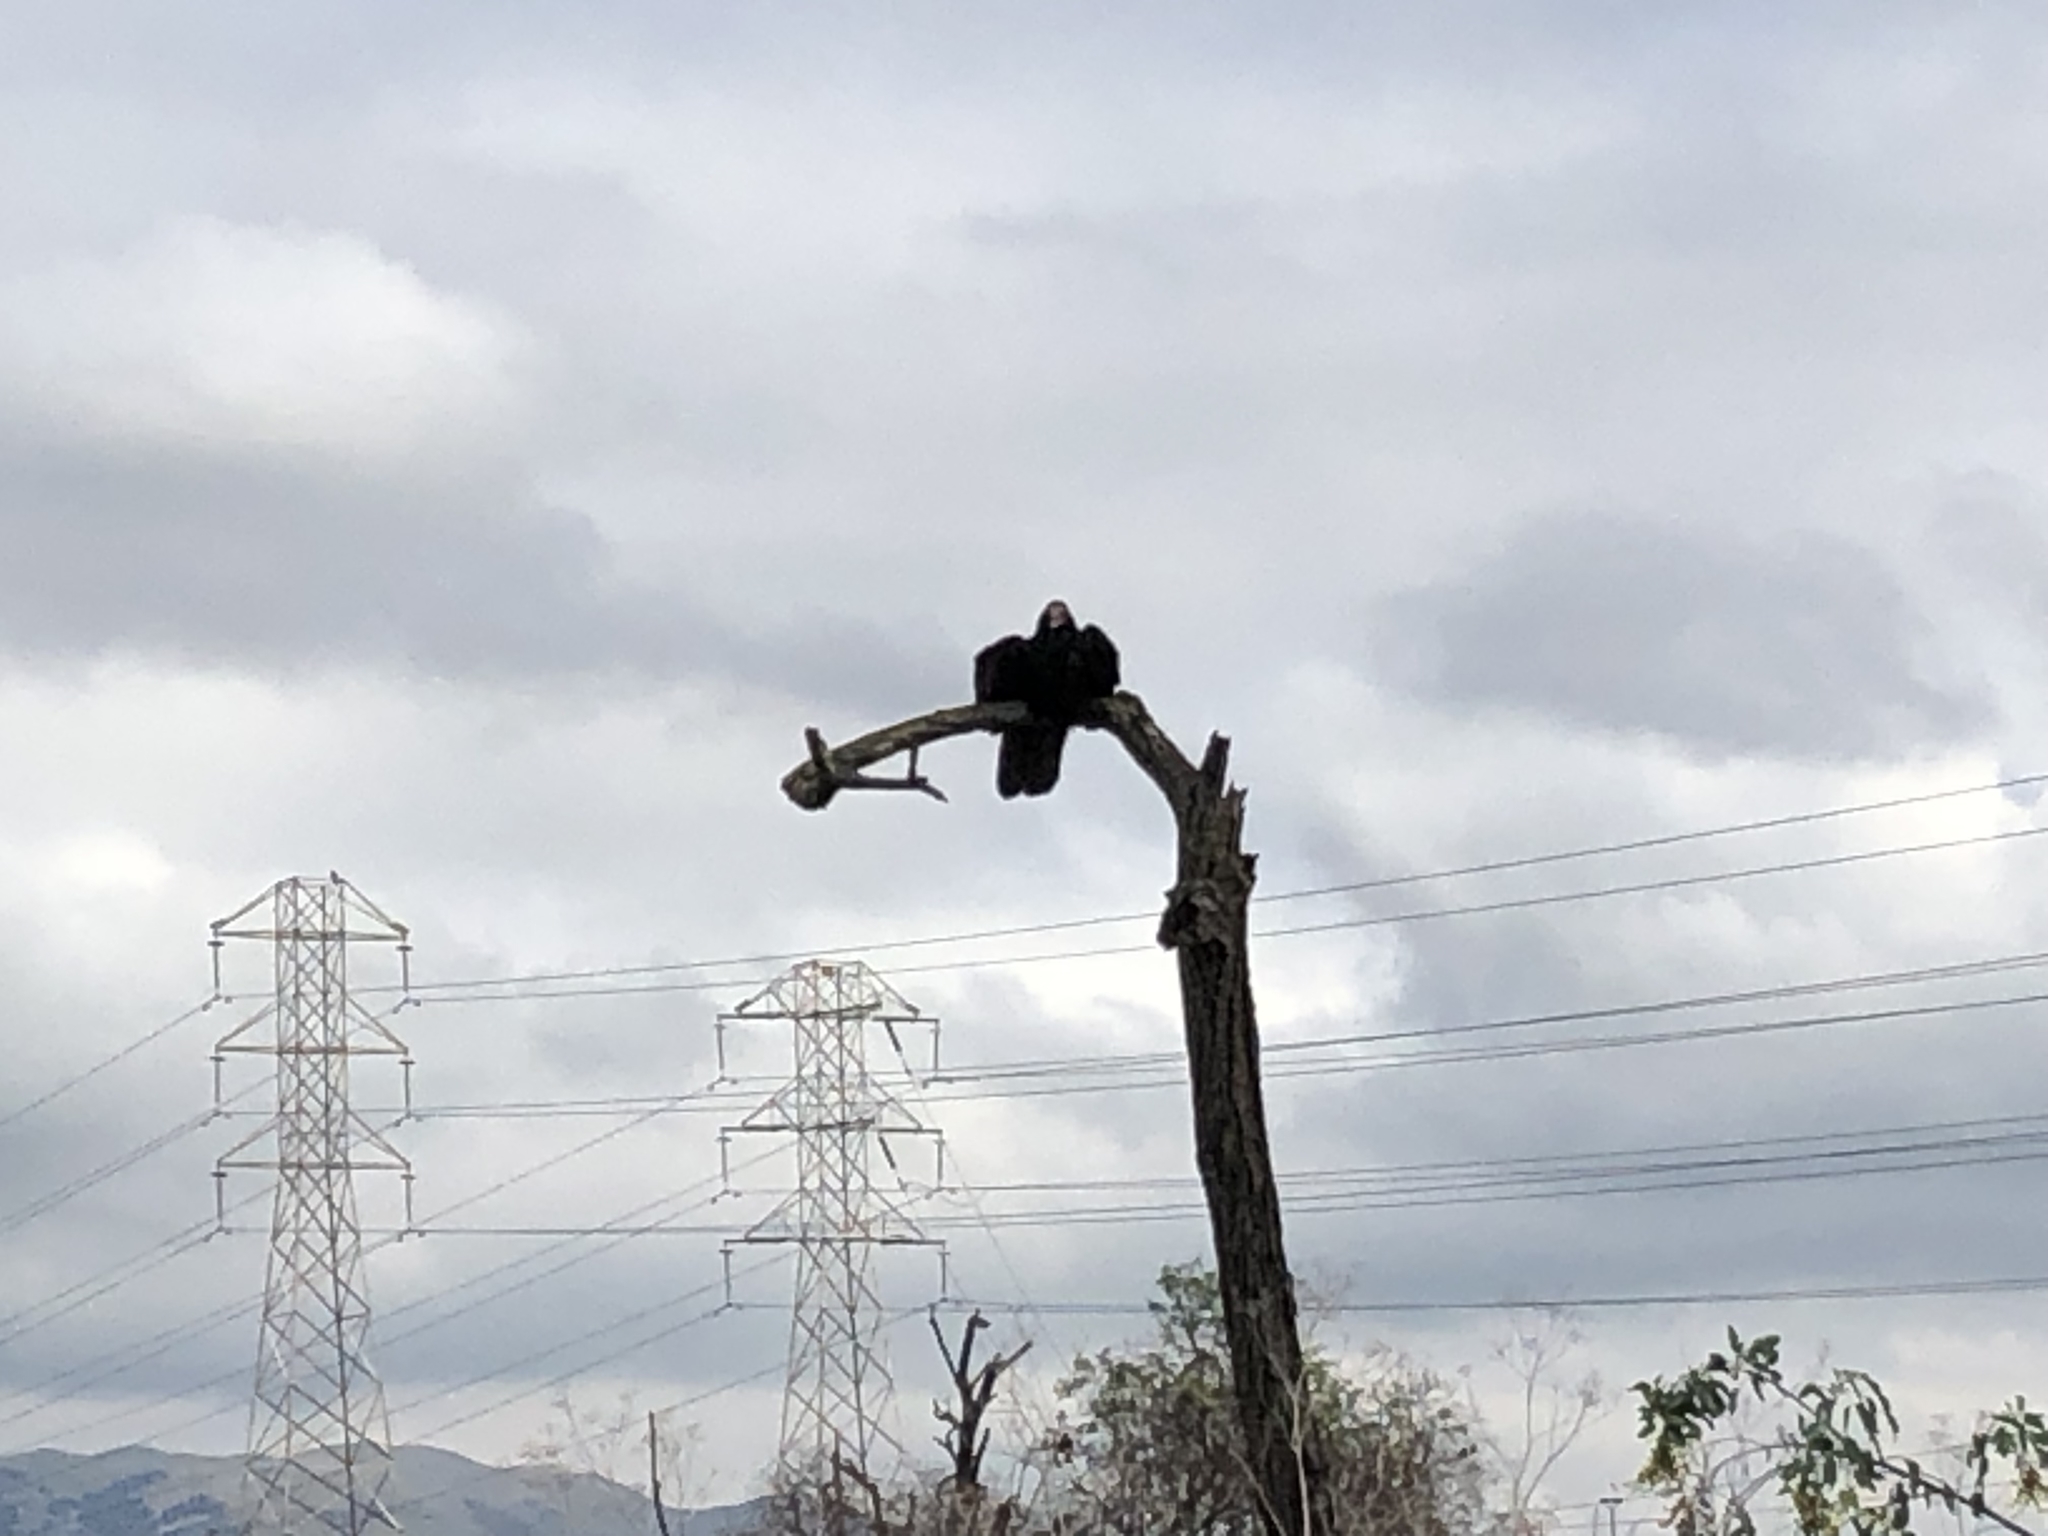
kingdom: Animalia
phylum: Chordata
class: Aves
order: Accipitriformes
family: Cathartidae
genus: Cathartes
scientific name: Cathartes aura
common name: Turkey vulture
